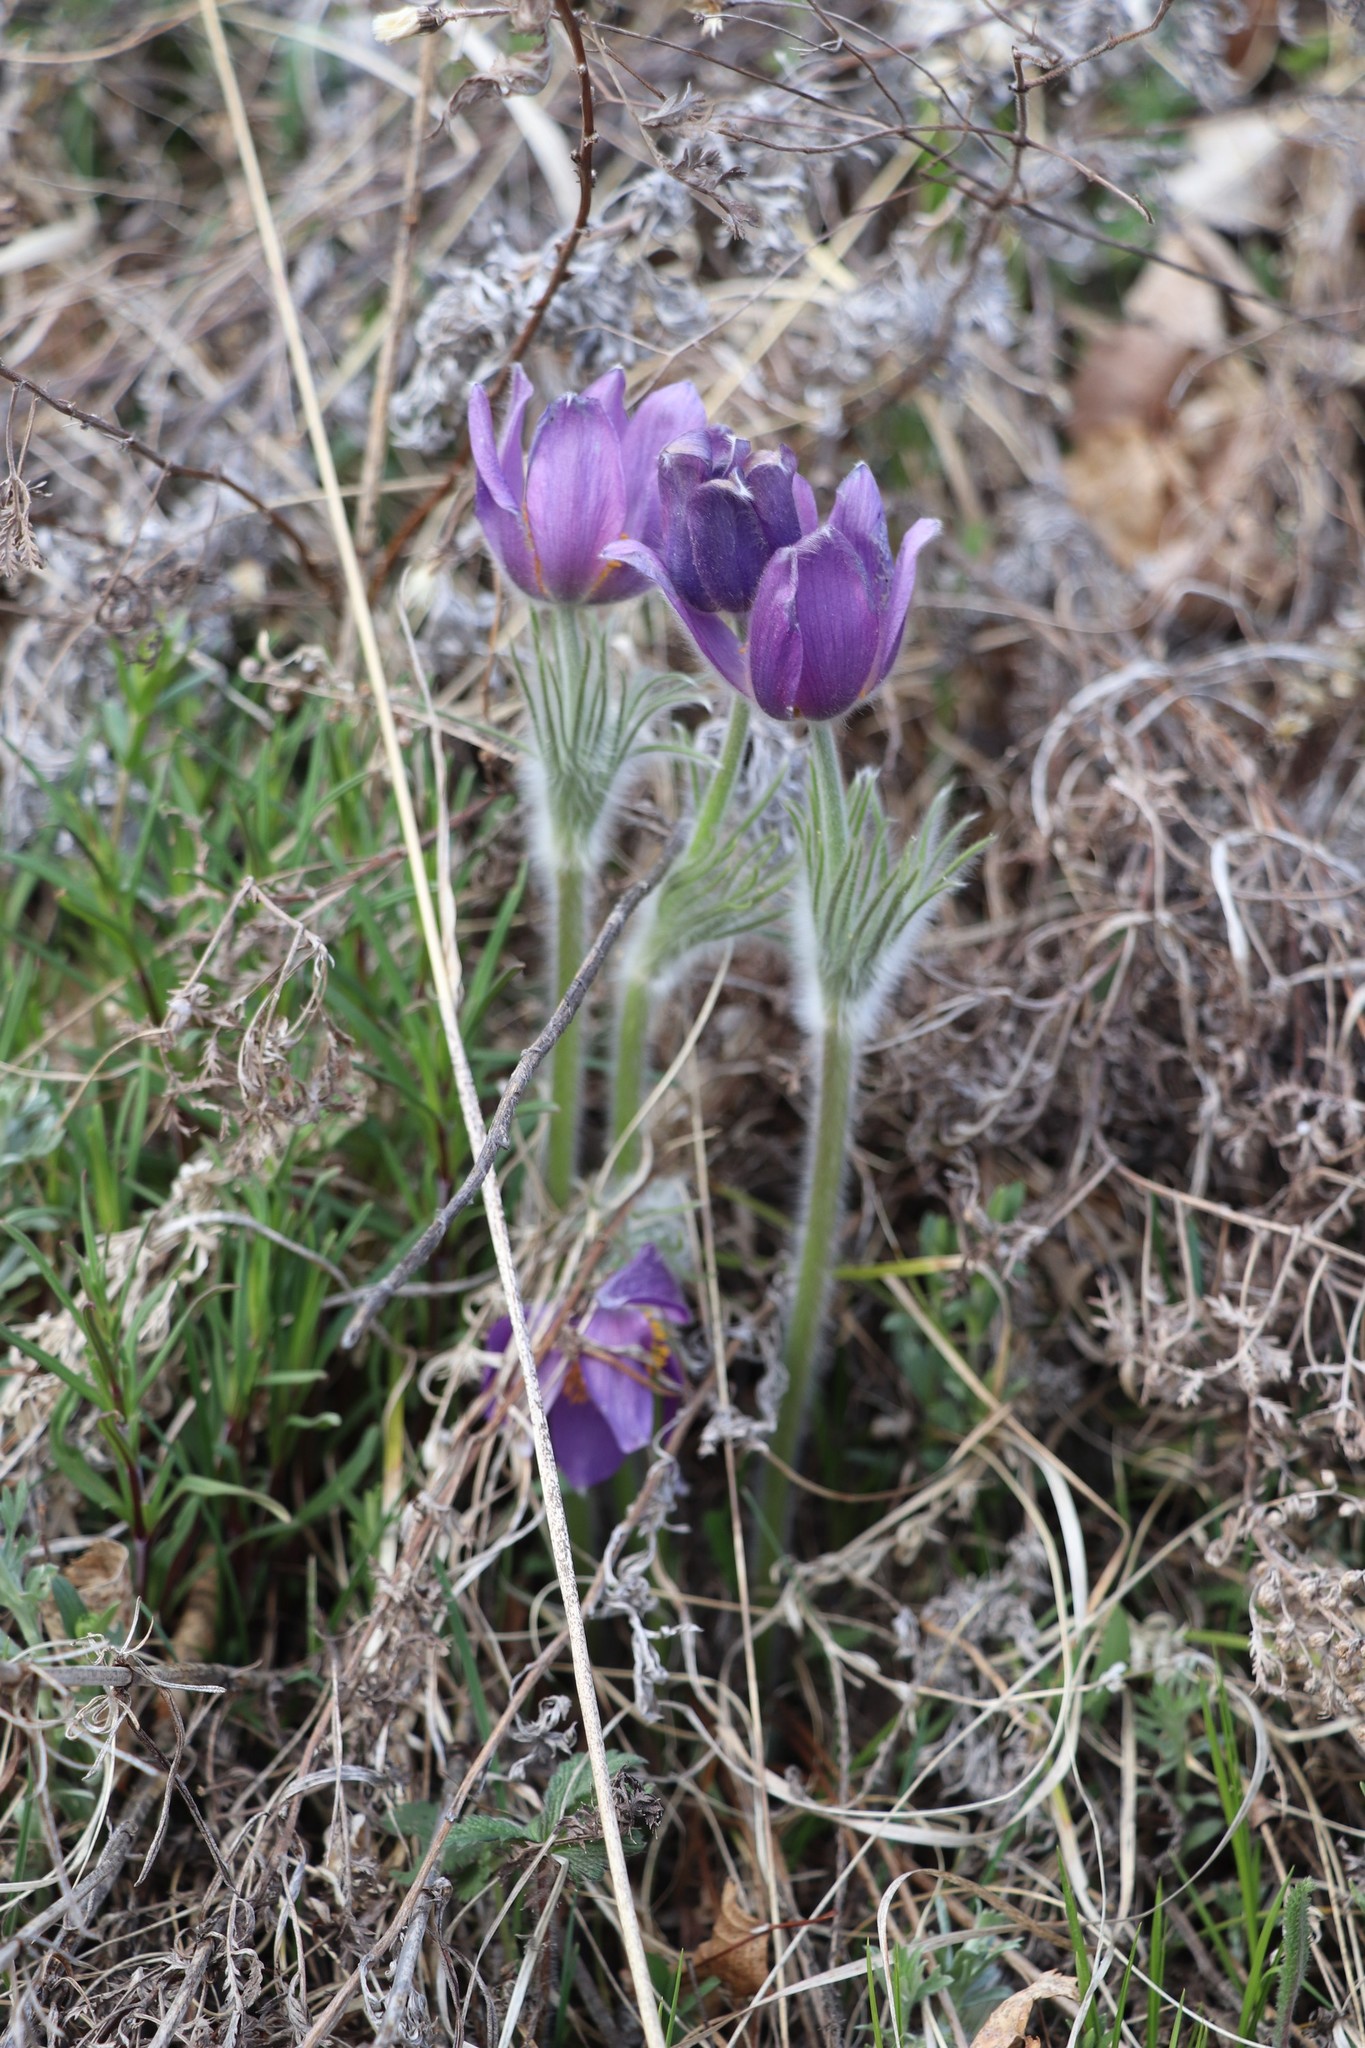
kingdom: Plantae
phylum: Tracheophyta
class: Magnoliopsida
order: Ranunculales
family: Ranunculaceae
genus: Pulsatilla
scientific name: Pulsatilla patens
